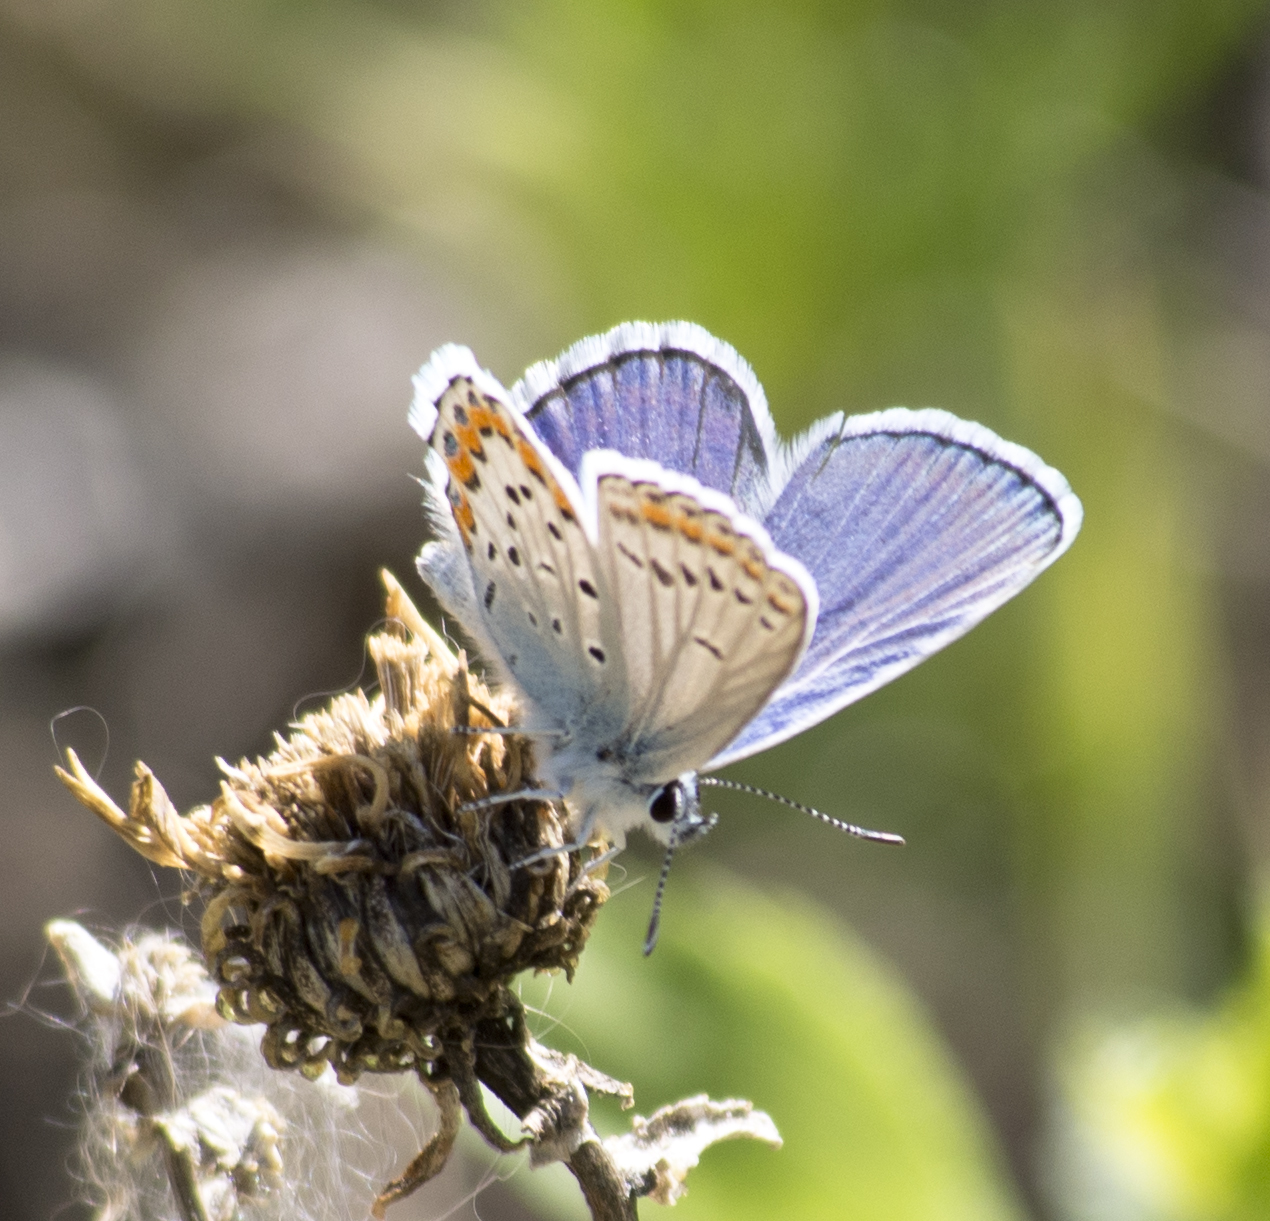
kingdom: Animalia
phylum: Arthropoda
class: Insecta
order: Lepidoptera
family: Lycaenidae
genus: Lycaeides
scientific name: Lycaeides melissa
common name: Melissa blue
